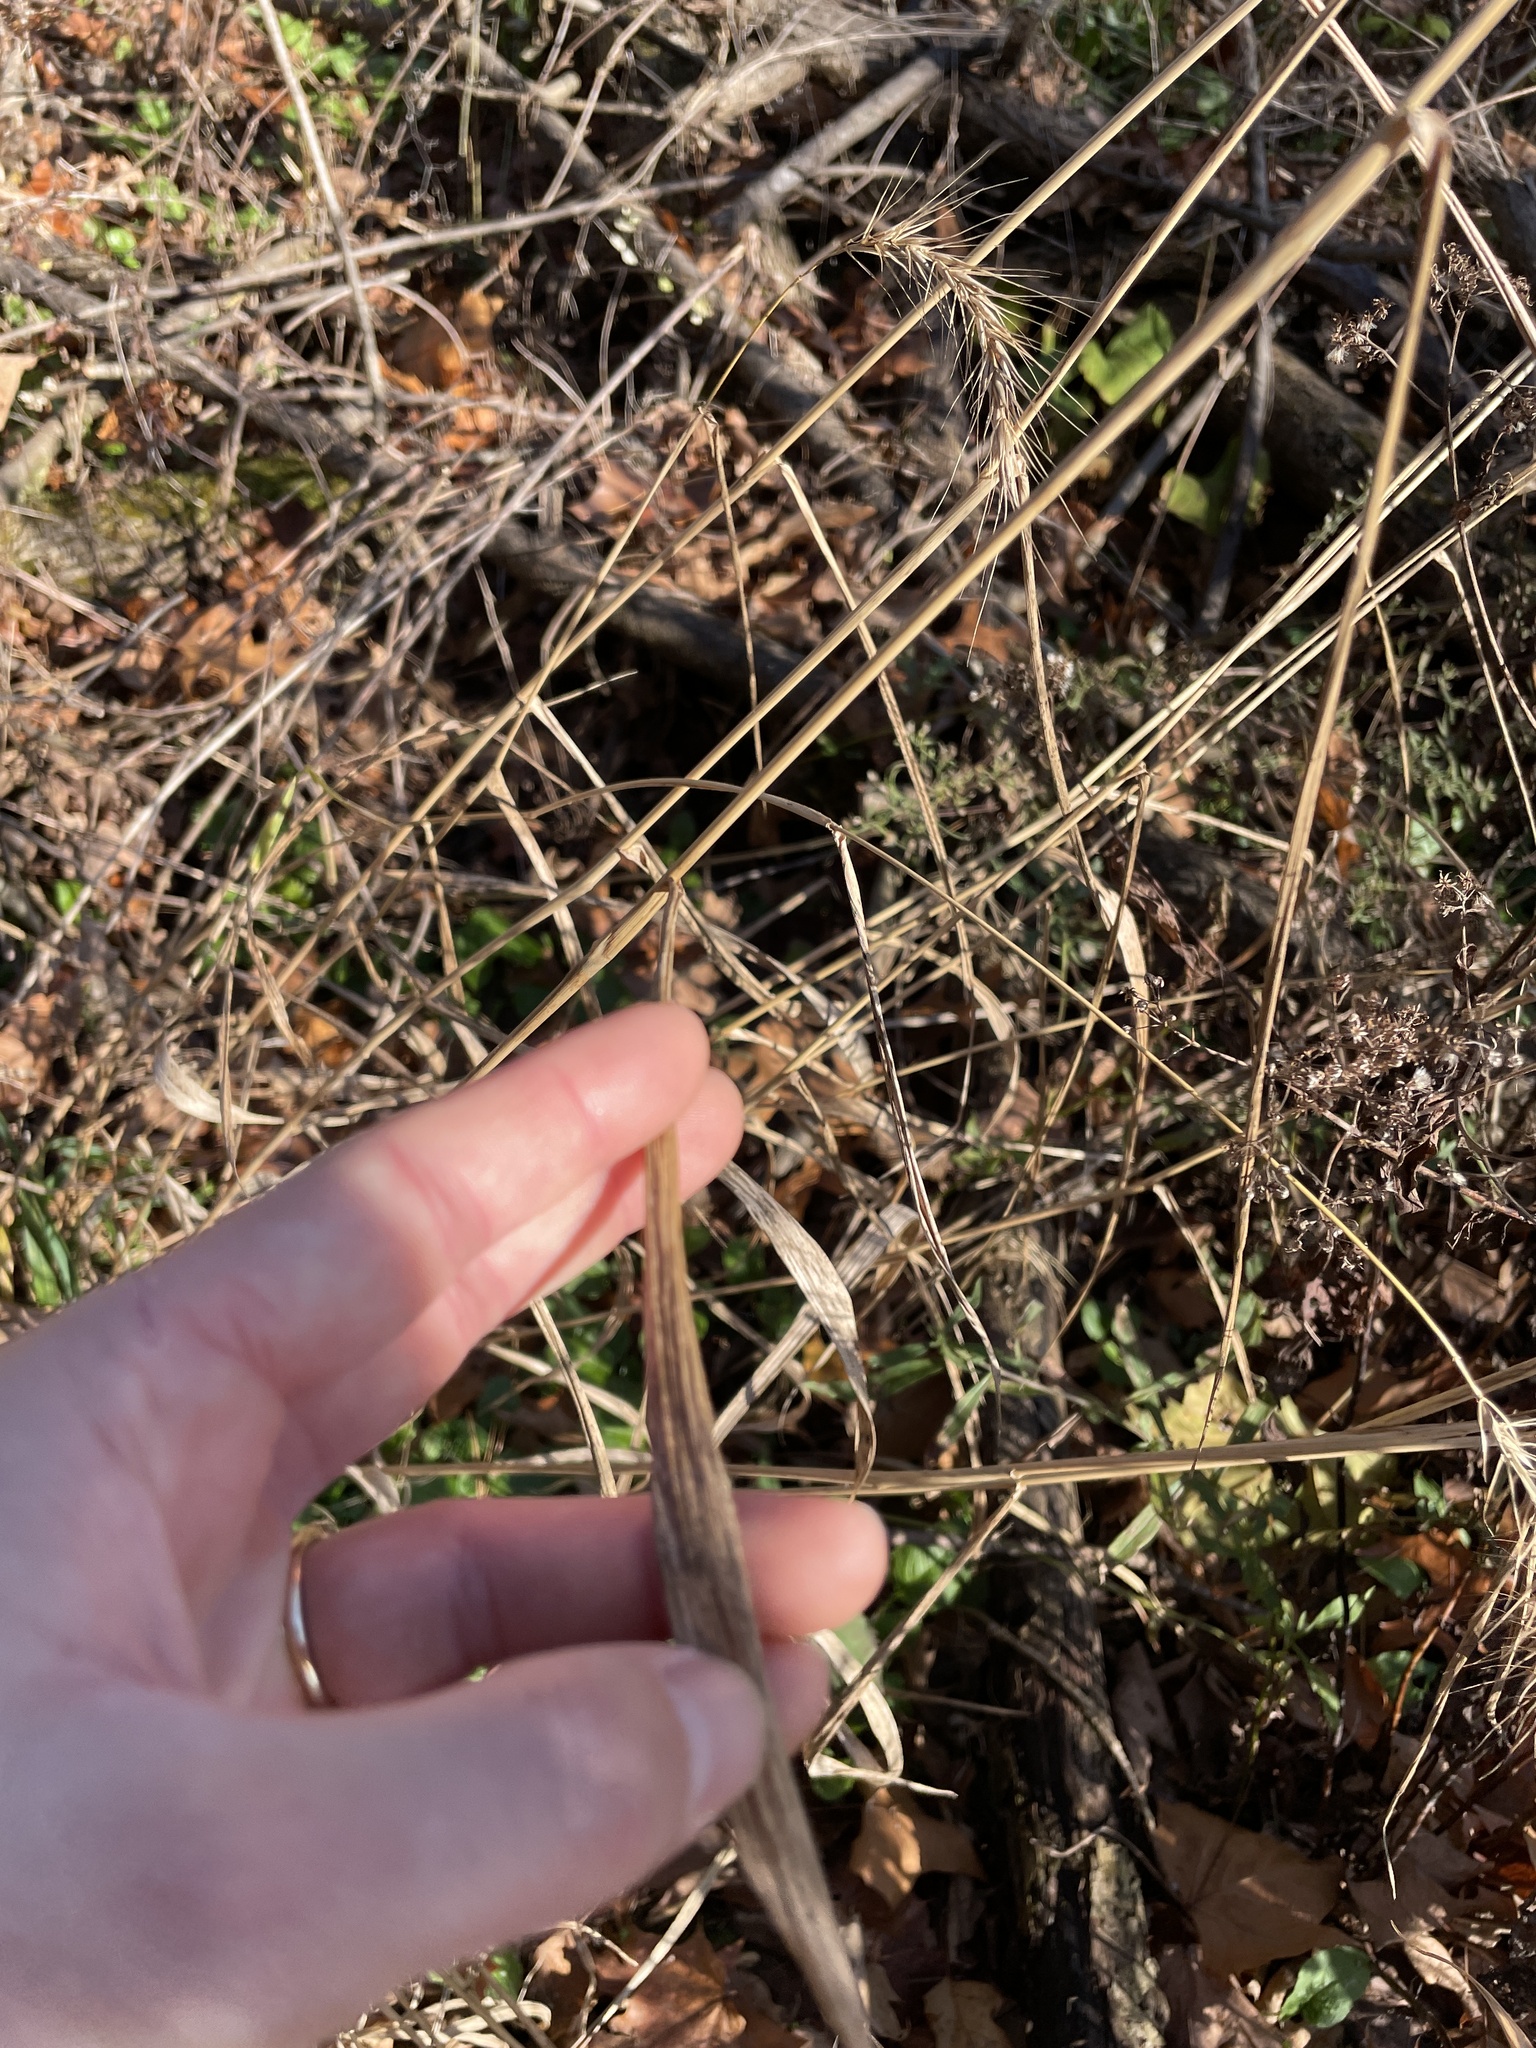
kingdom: Plantae
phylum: Tracheophyta
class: Liliopsida
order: Poales
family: Poaceae
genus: Elymus
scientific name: Elymus riparius
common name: Eastern riverbank wild rye
